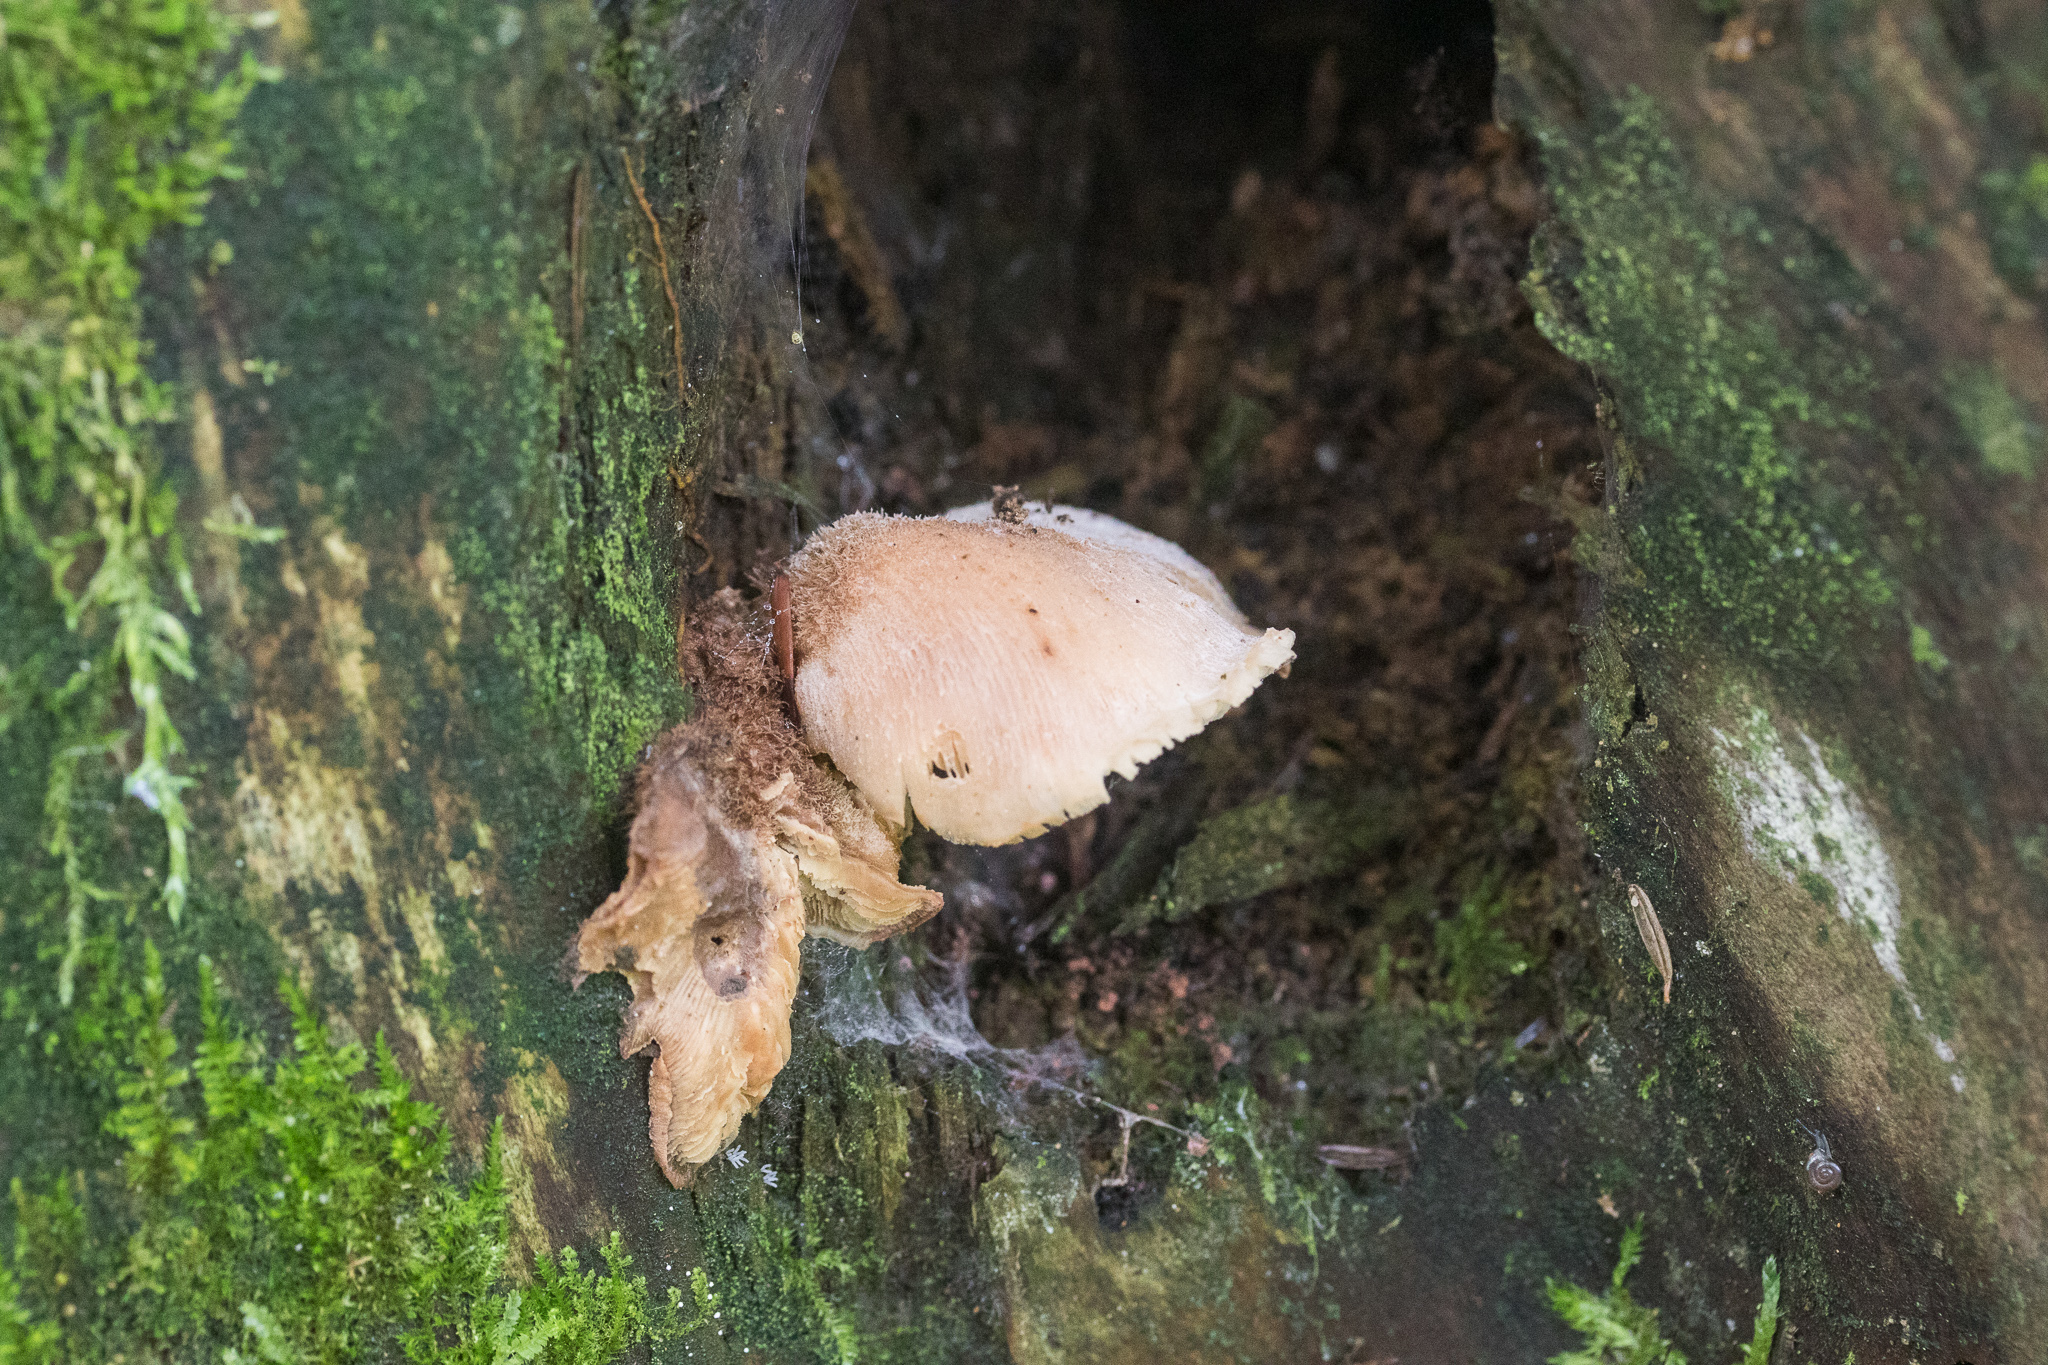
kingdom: Fungi
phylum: Basidiomycota
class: Agaricomycetes
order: Russulales
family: Auriscalpiaceae
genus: Lentinellus
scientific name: Lentinellus ursinus
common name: Bear lentinus
